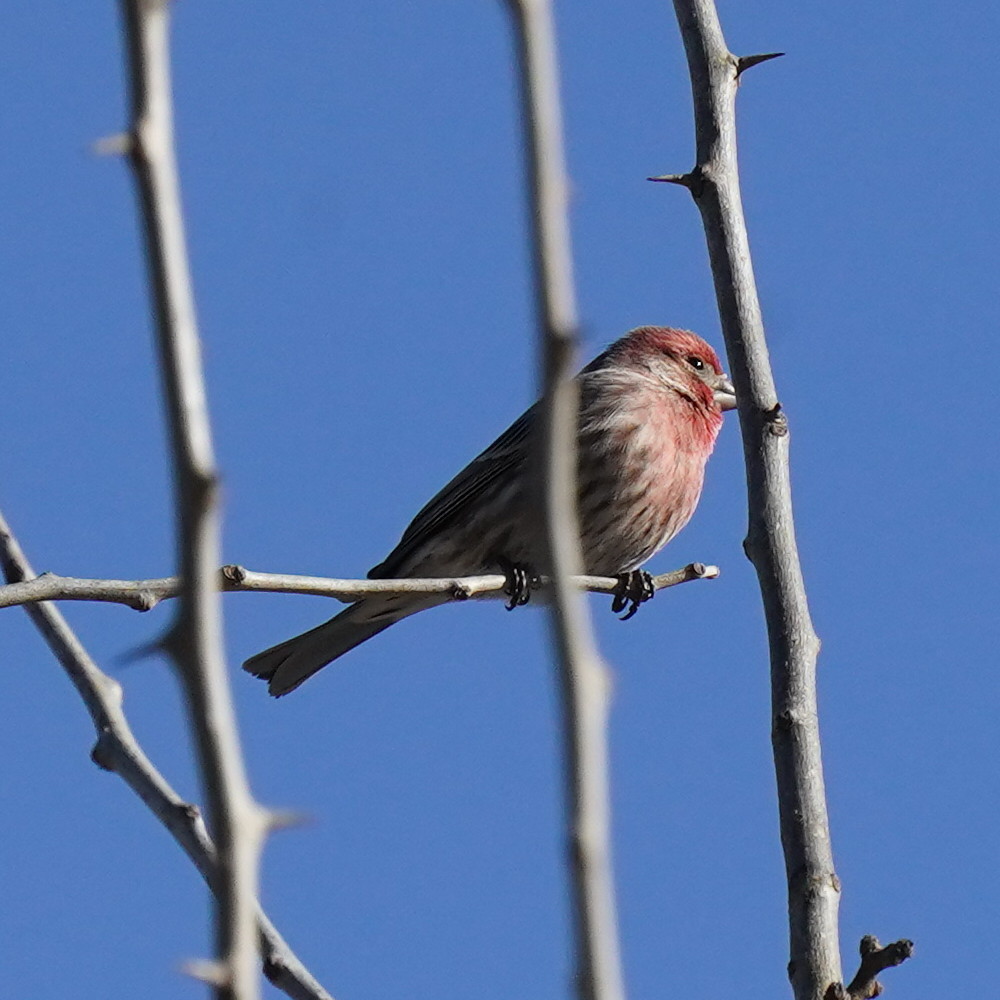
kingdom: Animalia
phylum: Chordata
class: Aves
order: Passeriformes
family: Fringillidae
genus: Haemorhous
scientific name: Haemorhous mexicanus
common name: House finch
